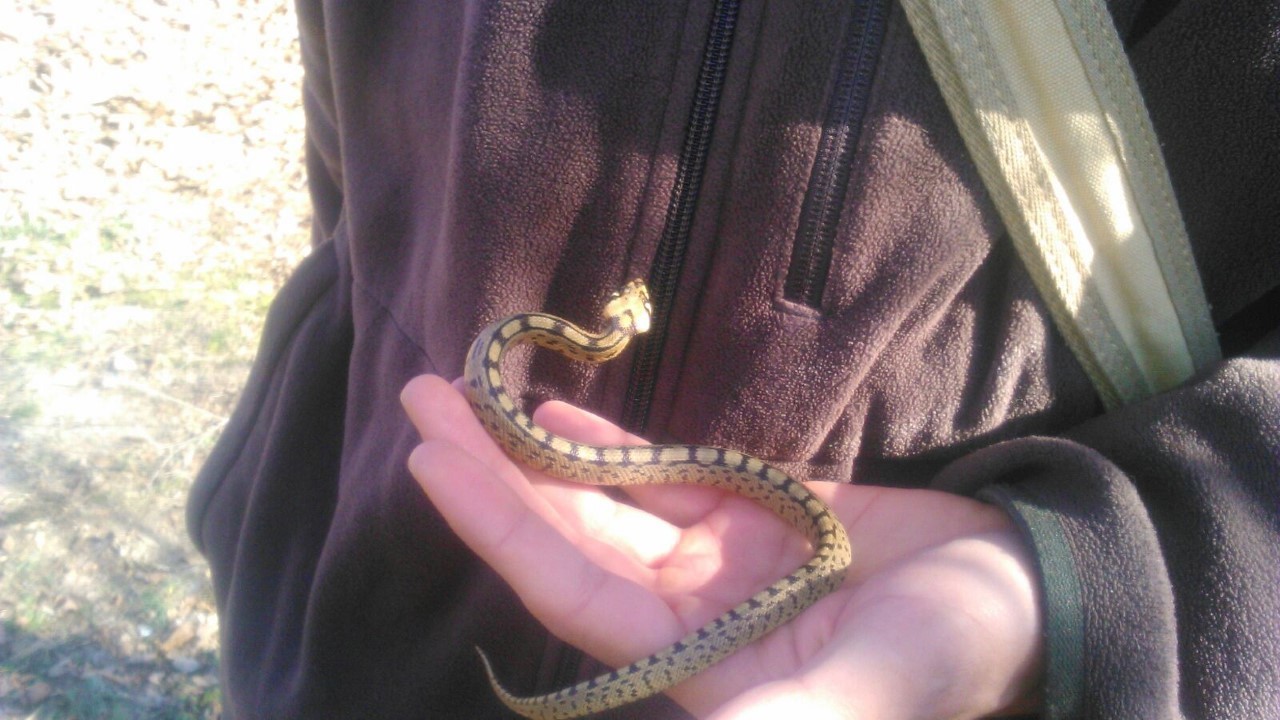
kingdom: Animalia
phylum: Chordata
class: Squamata
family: Colubridae
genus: Zamenis
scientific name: Zamenis scalaris
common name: Ladder snakes
